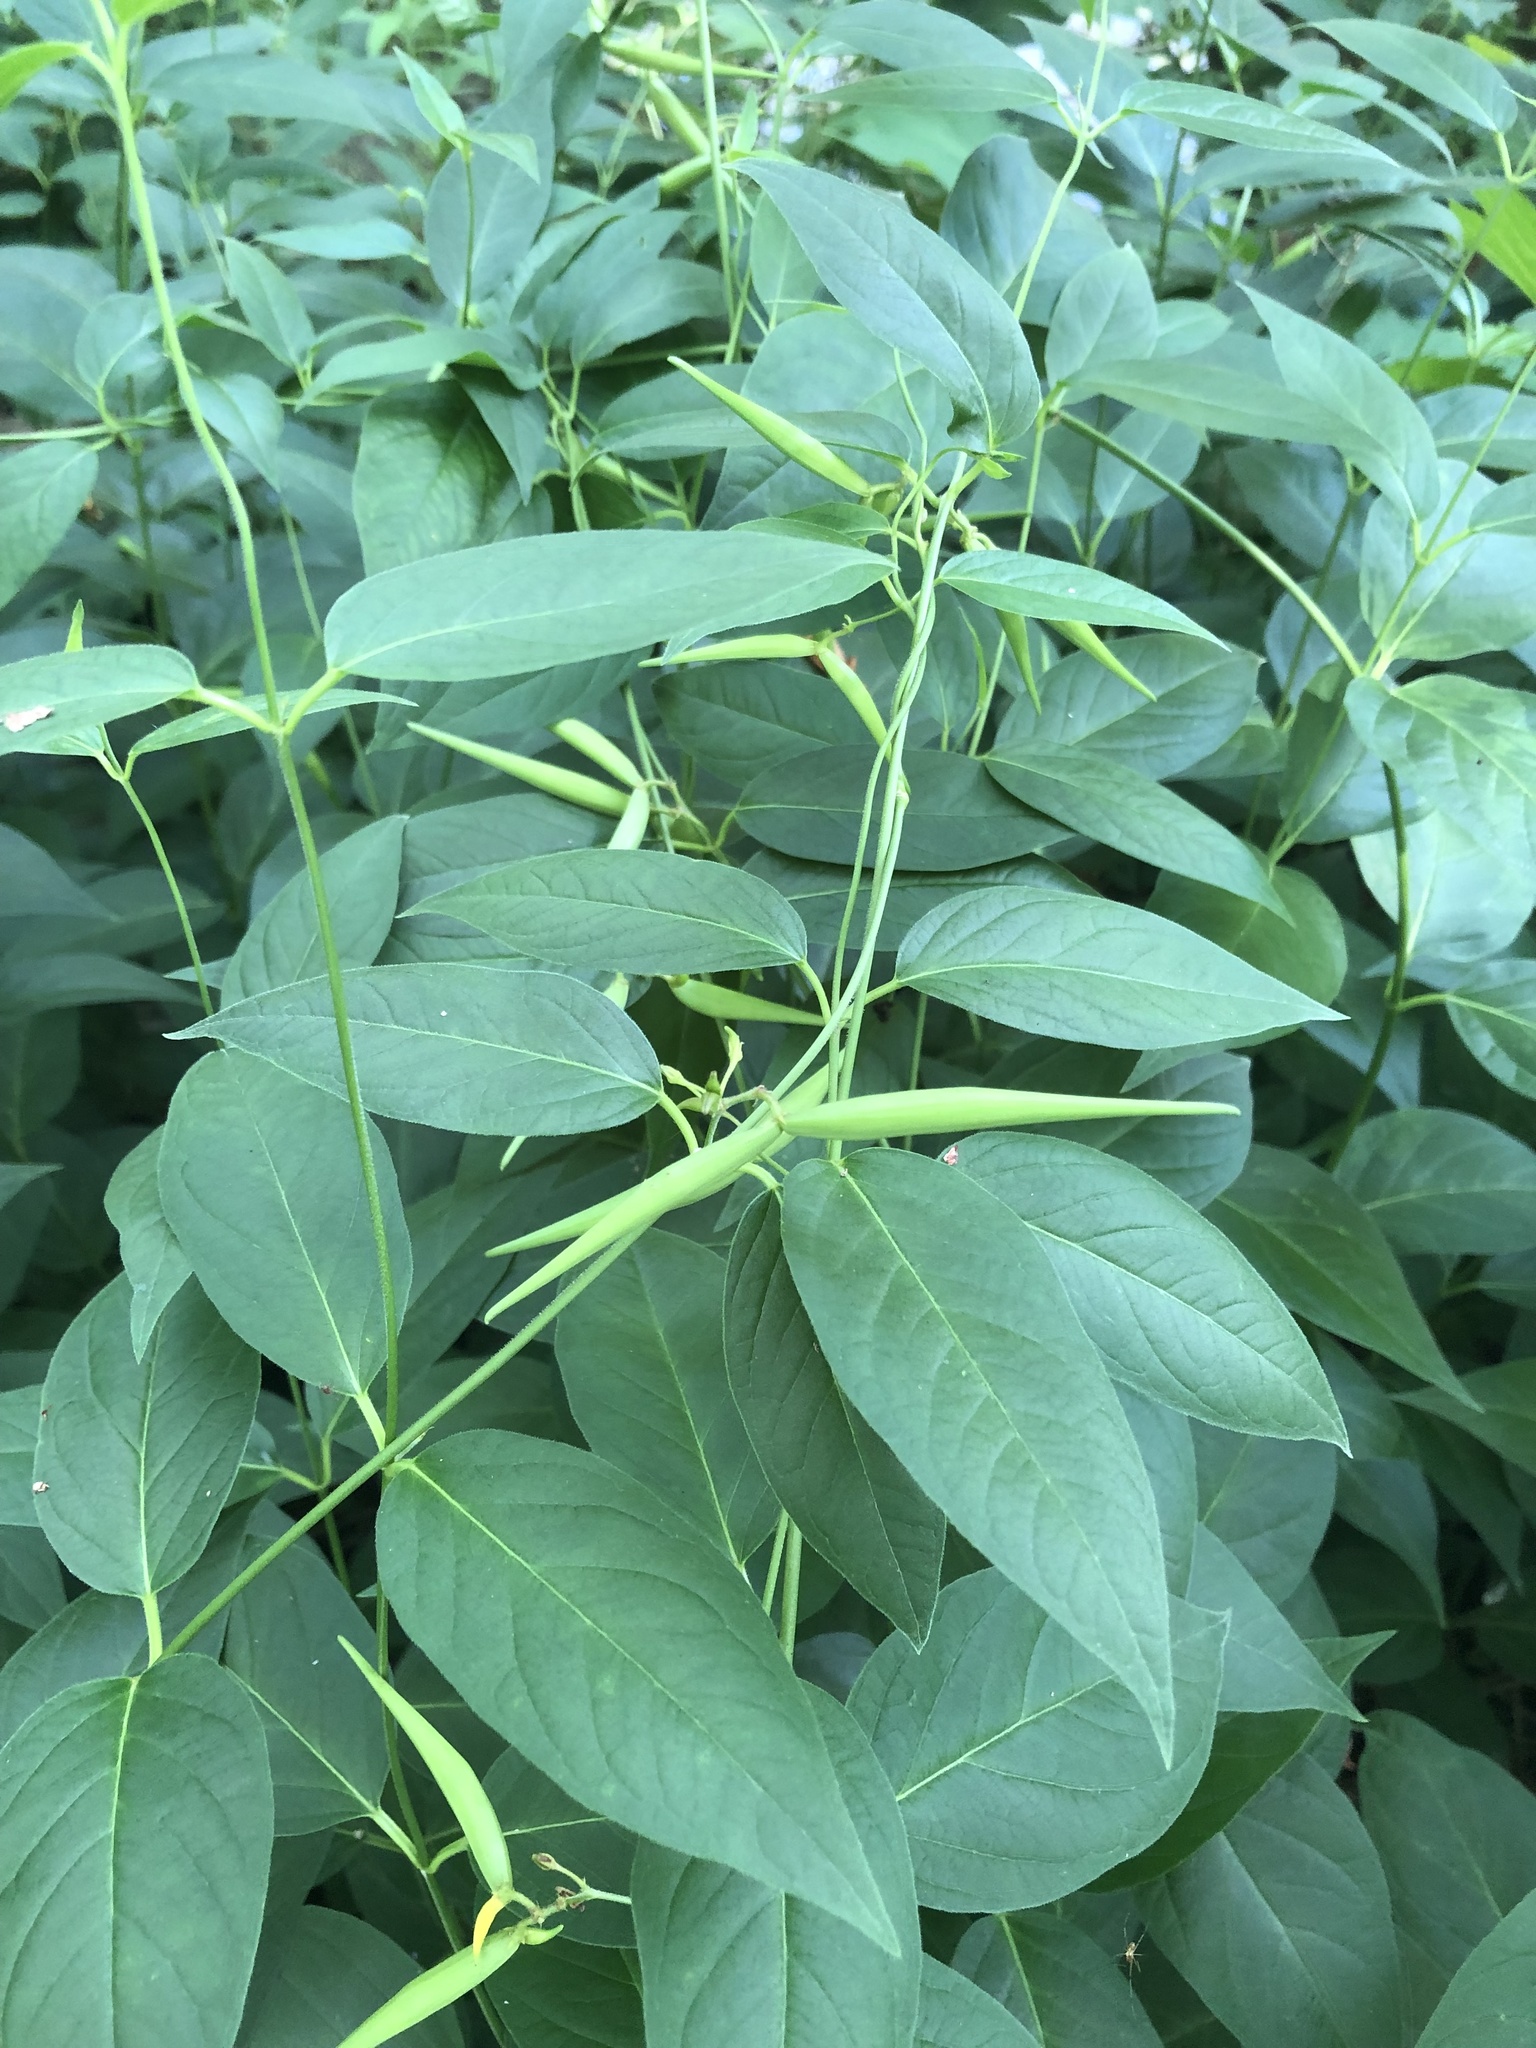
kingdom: Plantae
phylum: Tracheophyta
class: Magnoliopsida
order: Gentianales
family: Apocynaceae
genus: Vincetoxicum
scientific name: Vincetoxicum rossicum
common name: Dog-strangling vine
